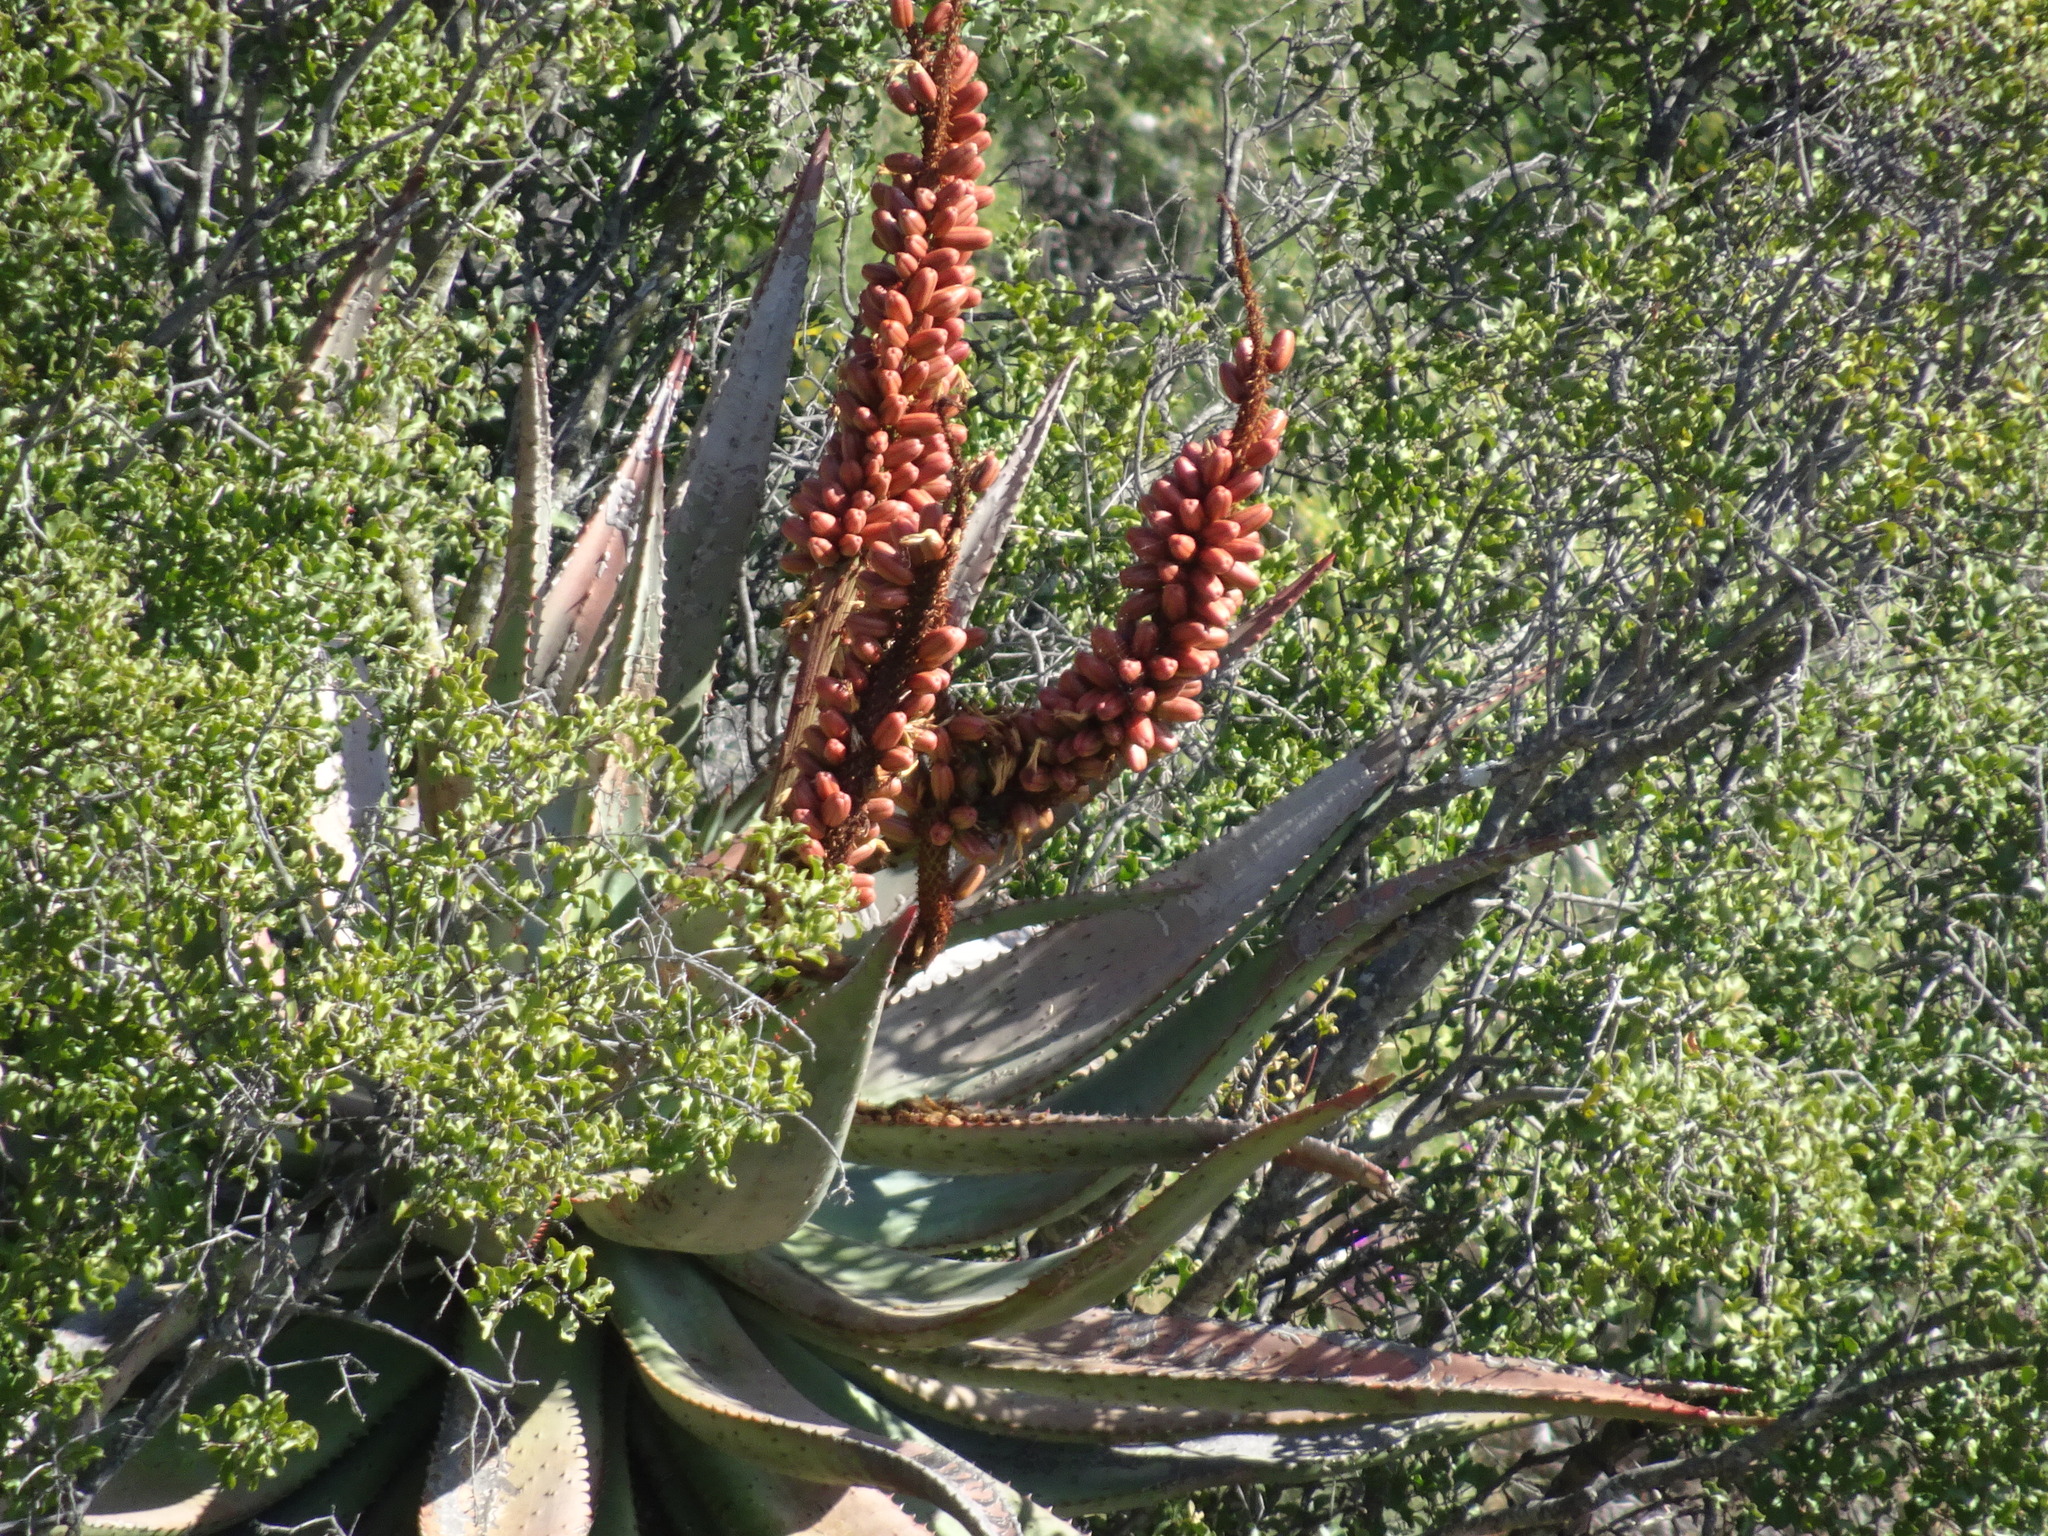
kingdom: Plantae
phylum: Tracheophyta
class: Liliopsida
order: Asparagales
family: Asphodelaceae
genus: Aloe
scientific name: Aloe ferox
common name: Bitter aloe
